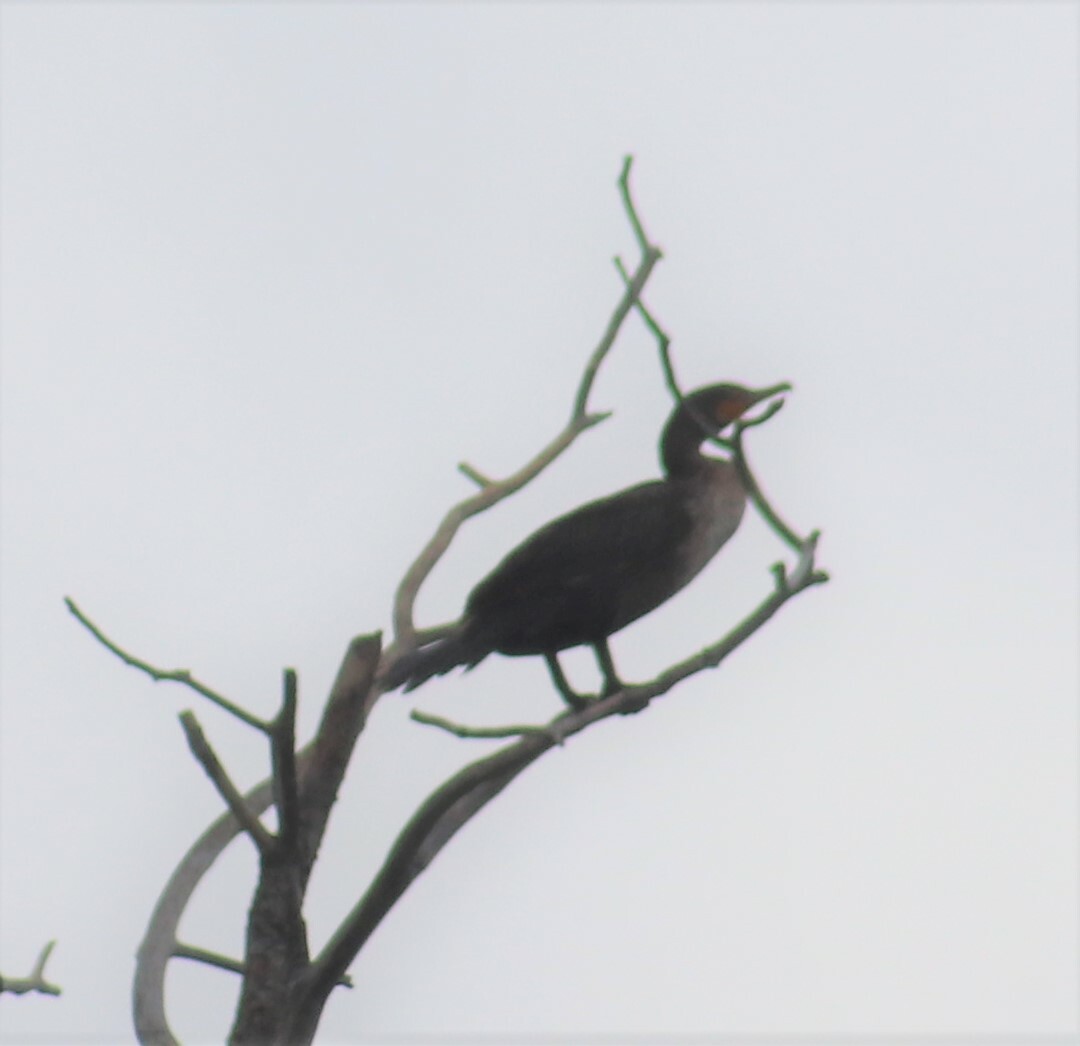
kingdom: Animalia
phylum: Chordata
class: Aves
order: Suliformes
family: Phalacrocoracidae
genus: Phalacrocorax
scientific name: Phalacrocorax auritus
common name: Double-crested cormorant
